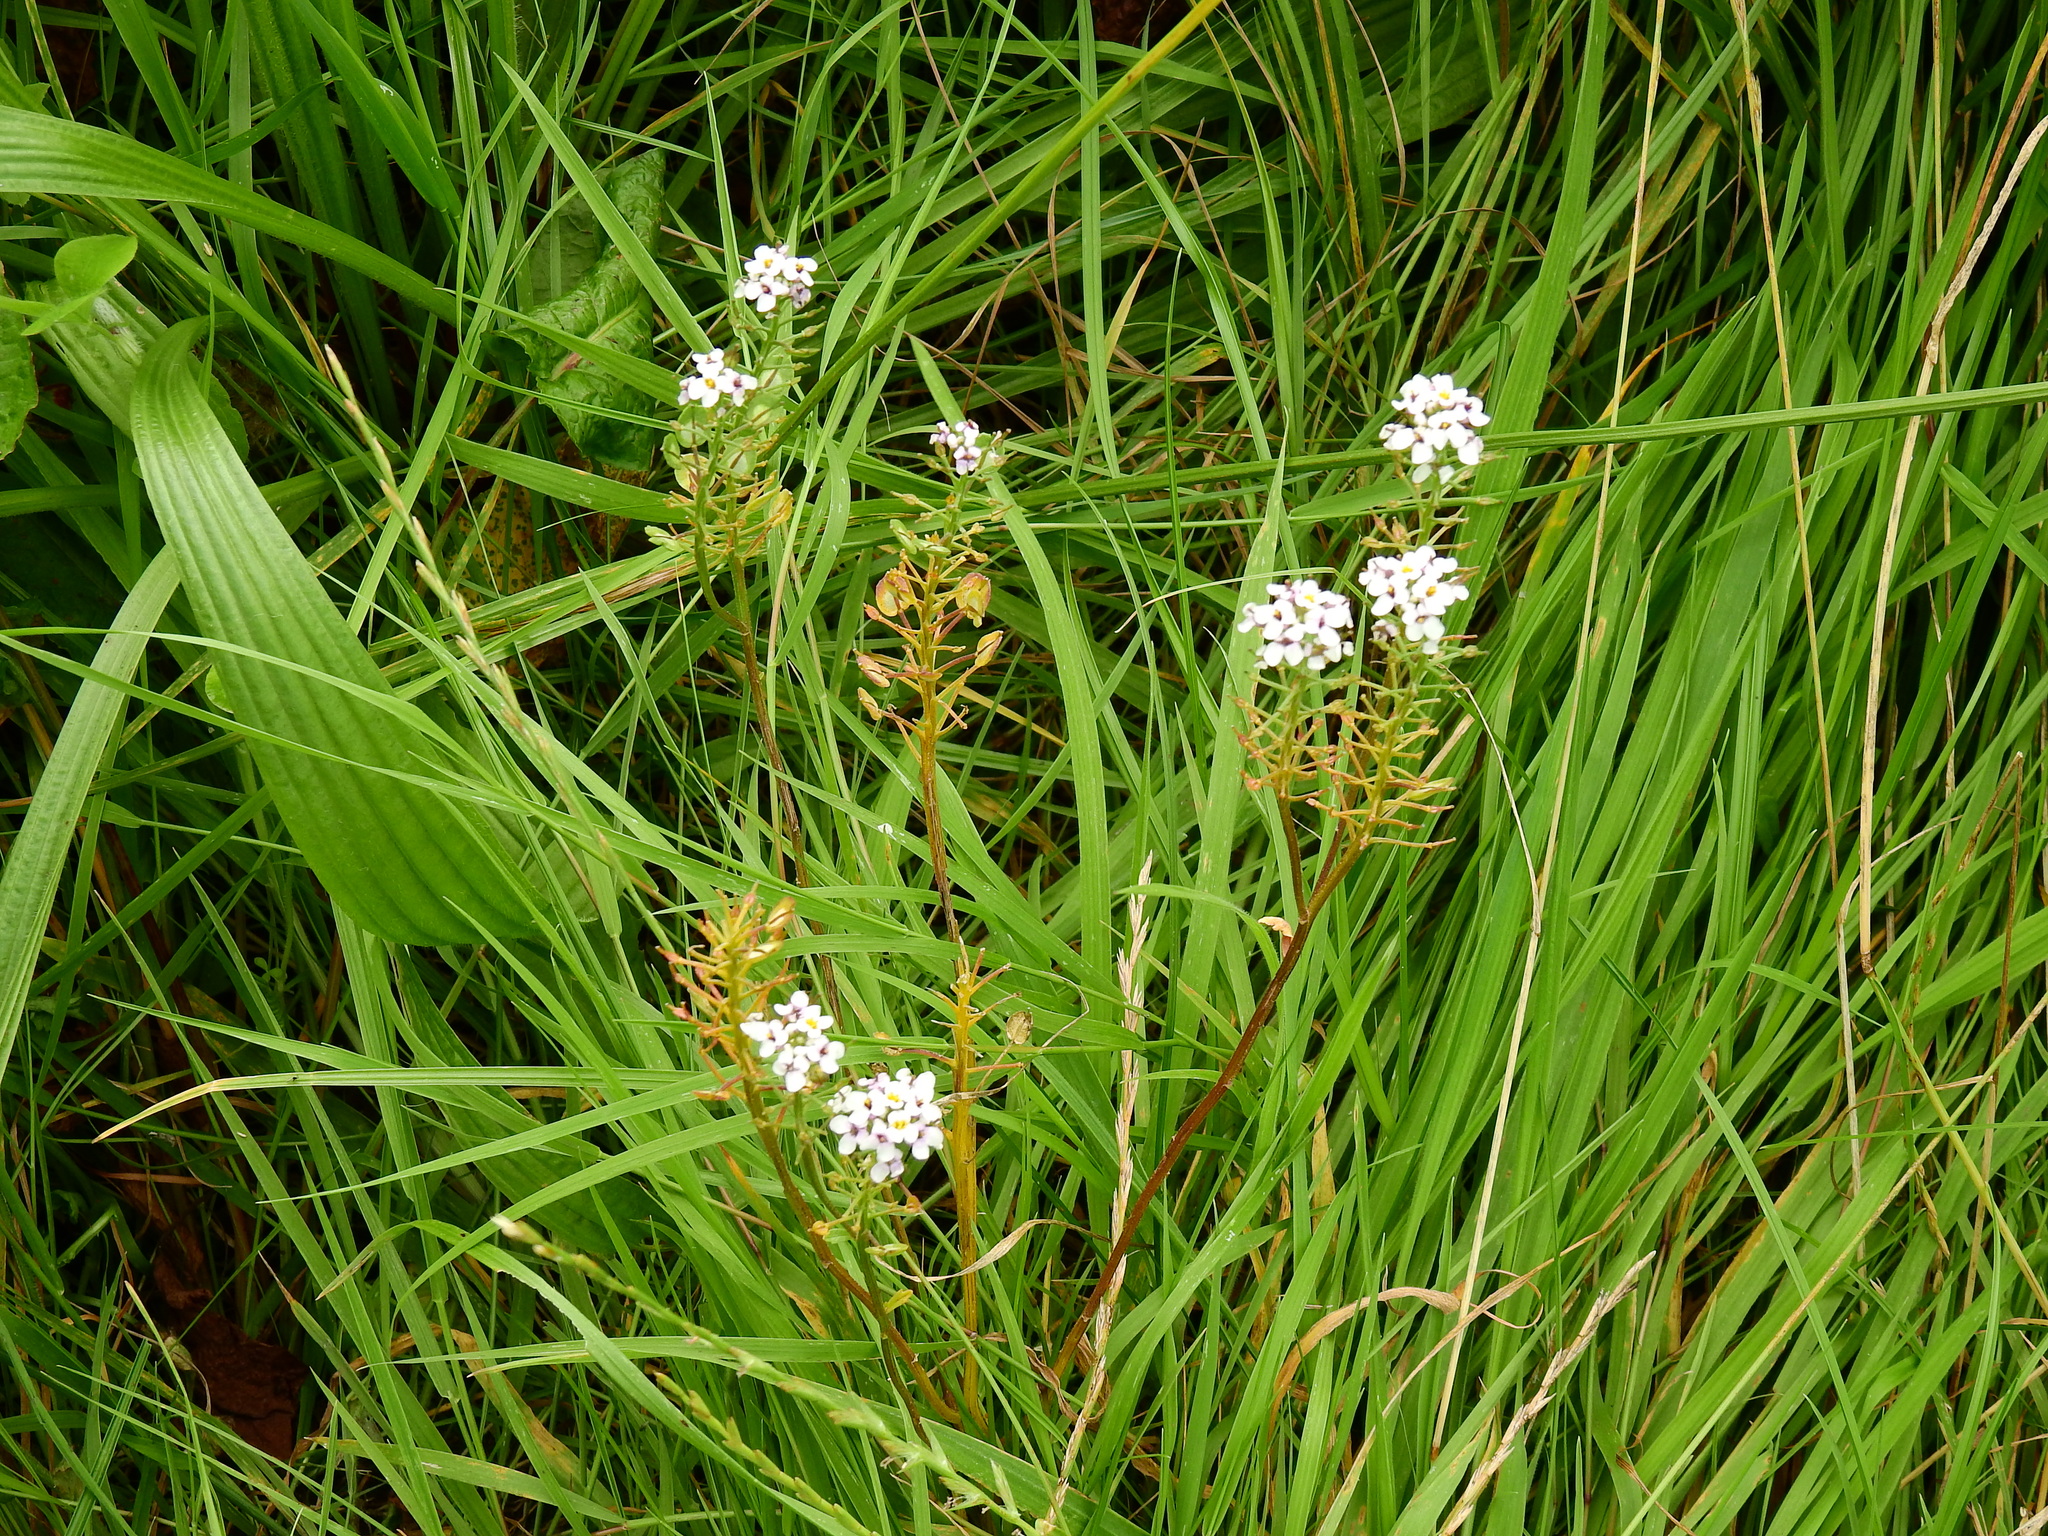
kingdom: Plantae
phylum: Tracheophyta
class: Magnoliopsida
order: Brassicales
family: Brassicaceae
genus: Lobularia
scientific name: Lobularia maritima
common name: Sweet alison
